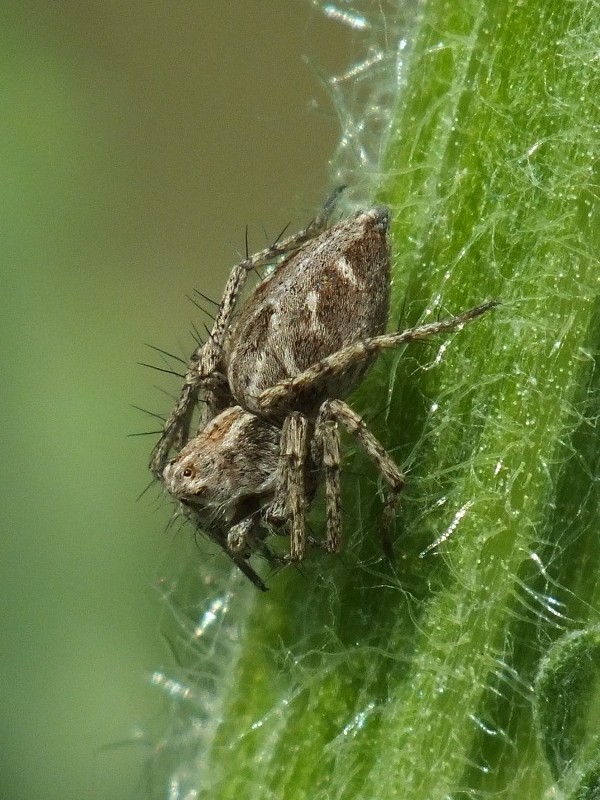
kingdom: Animalia
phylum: Arthropoda
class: Arachnida
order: Araneae
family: Oxyopidae
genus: Oxyopes
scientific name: Oxyopes heterophthalmus
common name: Lynx spider
